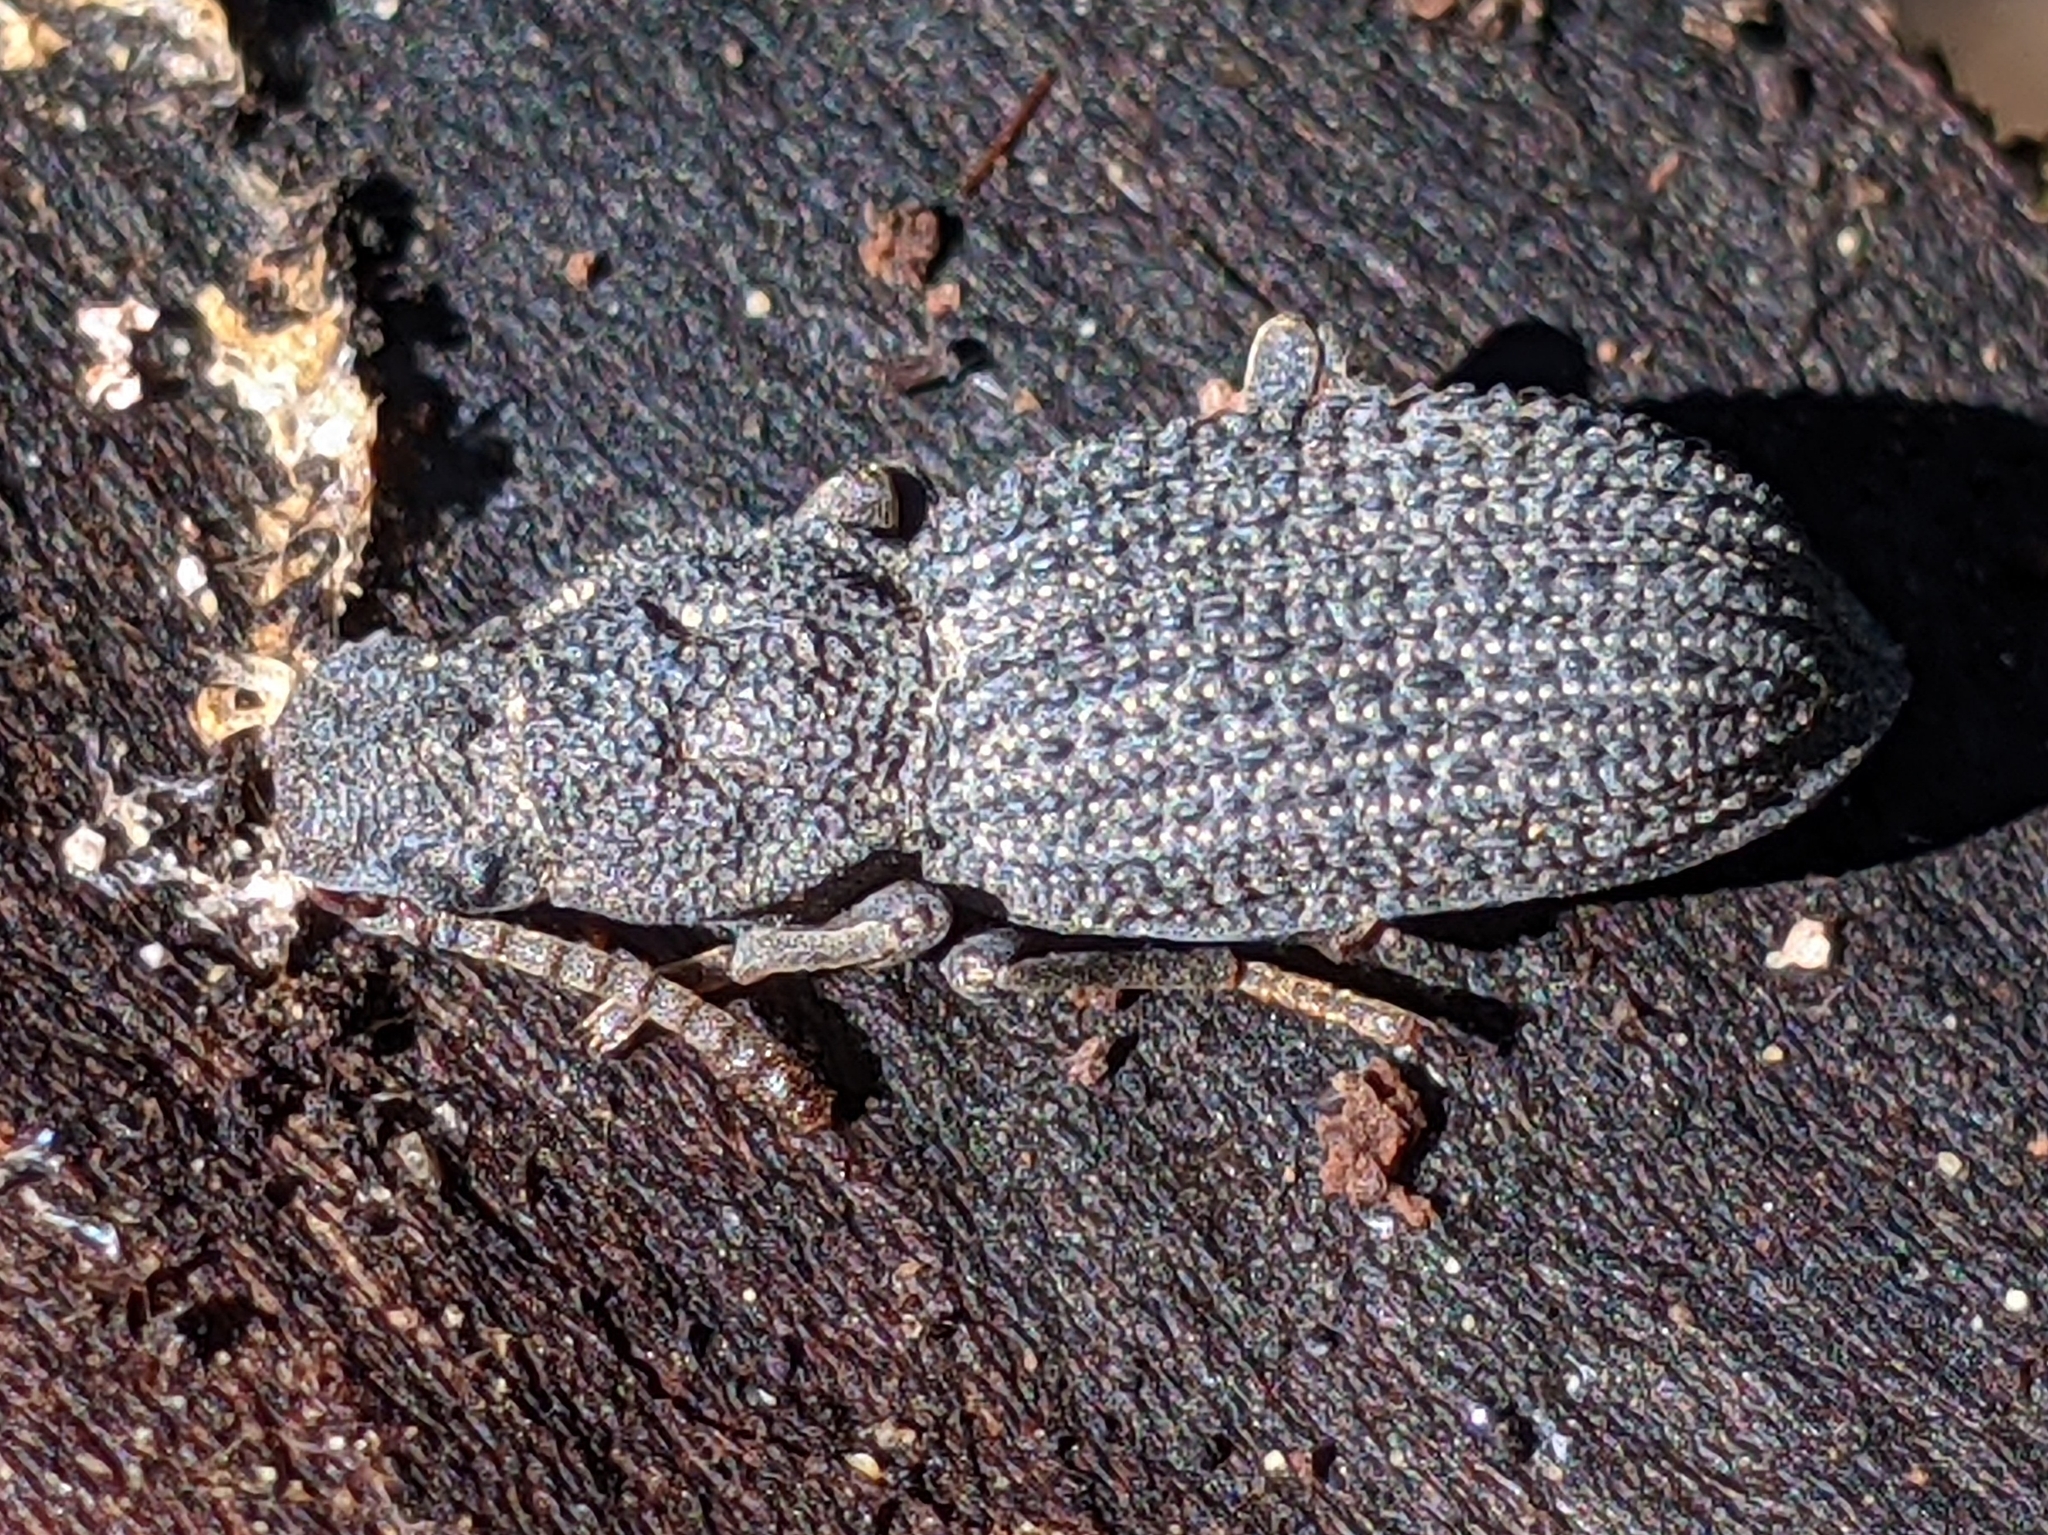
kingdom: Animalia
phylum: Arthropoda
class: Insecta
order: Coleoptera
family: Tenebrionidae
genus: Nyctoporis
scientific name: Nyctoporis sponsa
